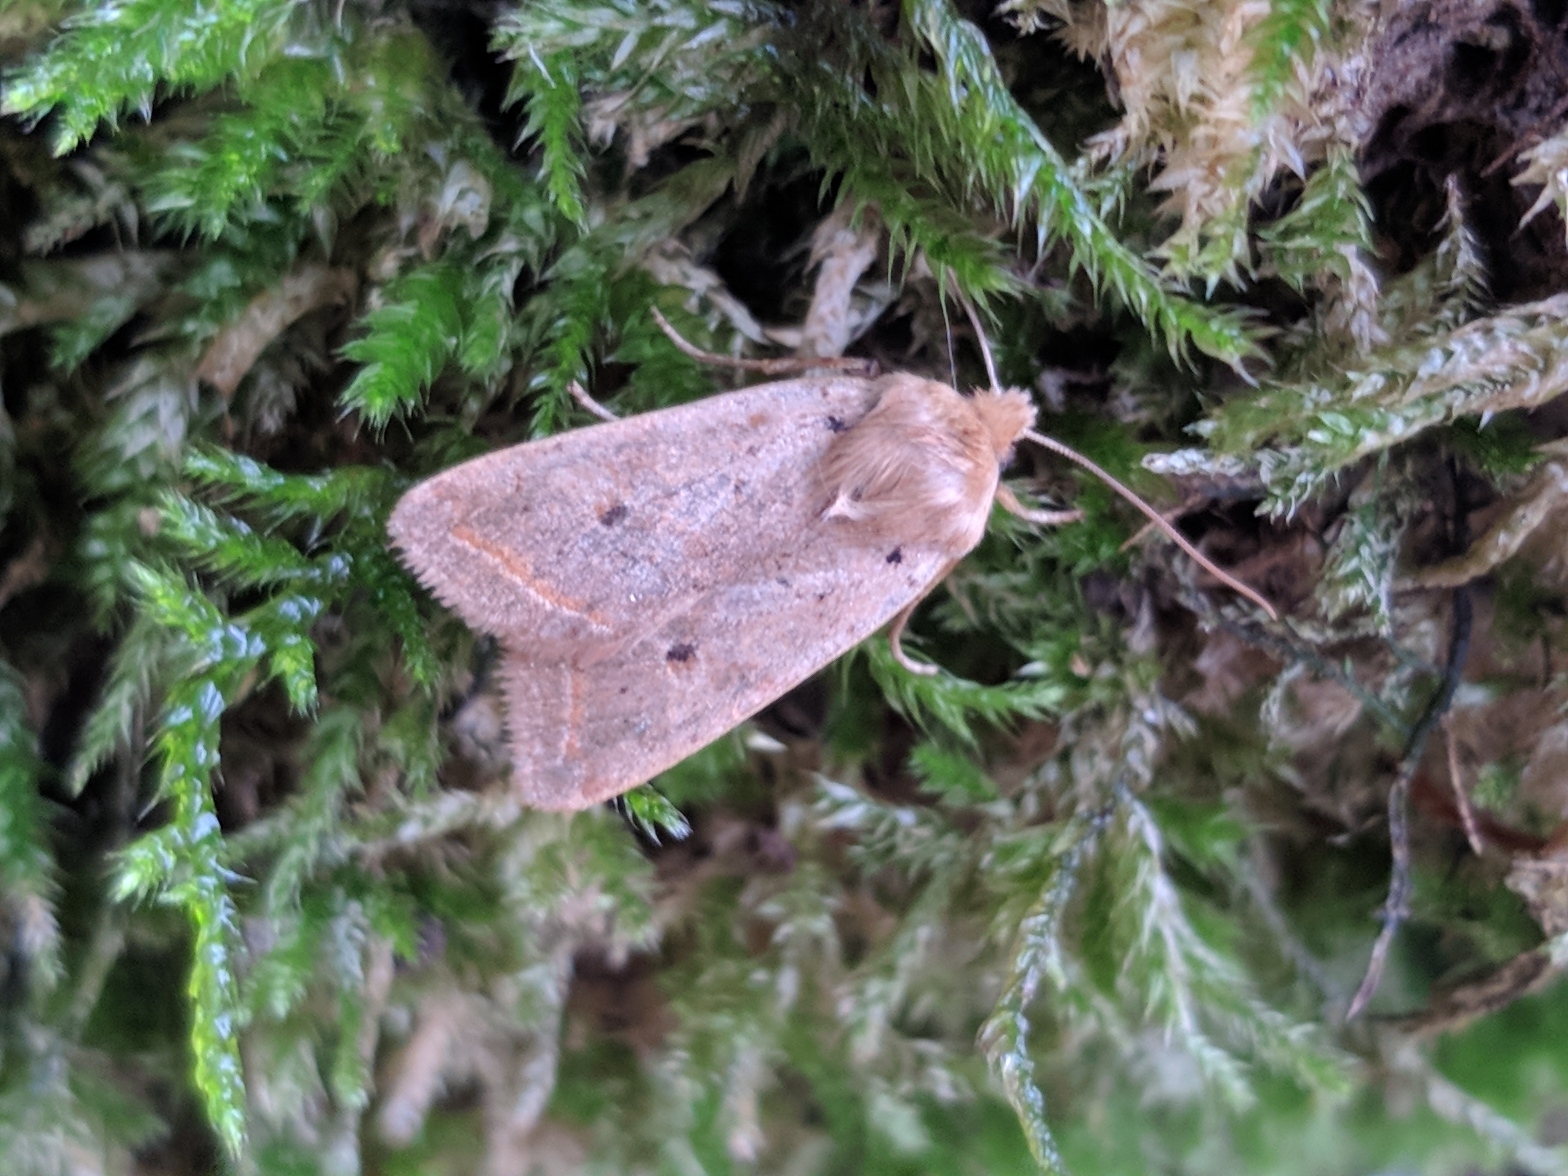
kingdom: Animalia
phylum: Arthropoda
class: Insecta
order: Lepidoptera
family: Noctuidae
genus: Agrochola
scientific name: Agrochola lota
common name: Red-line quaker
